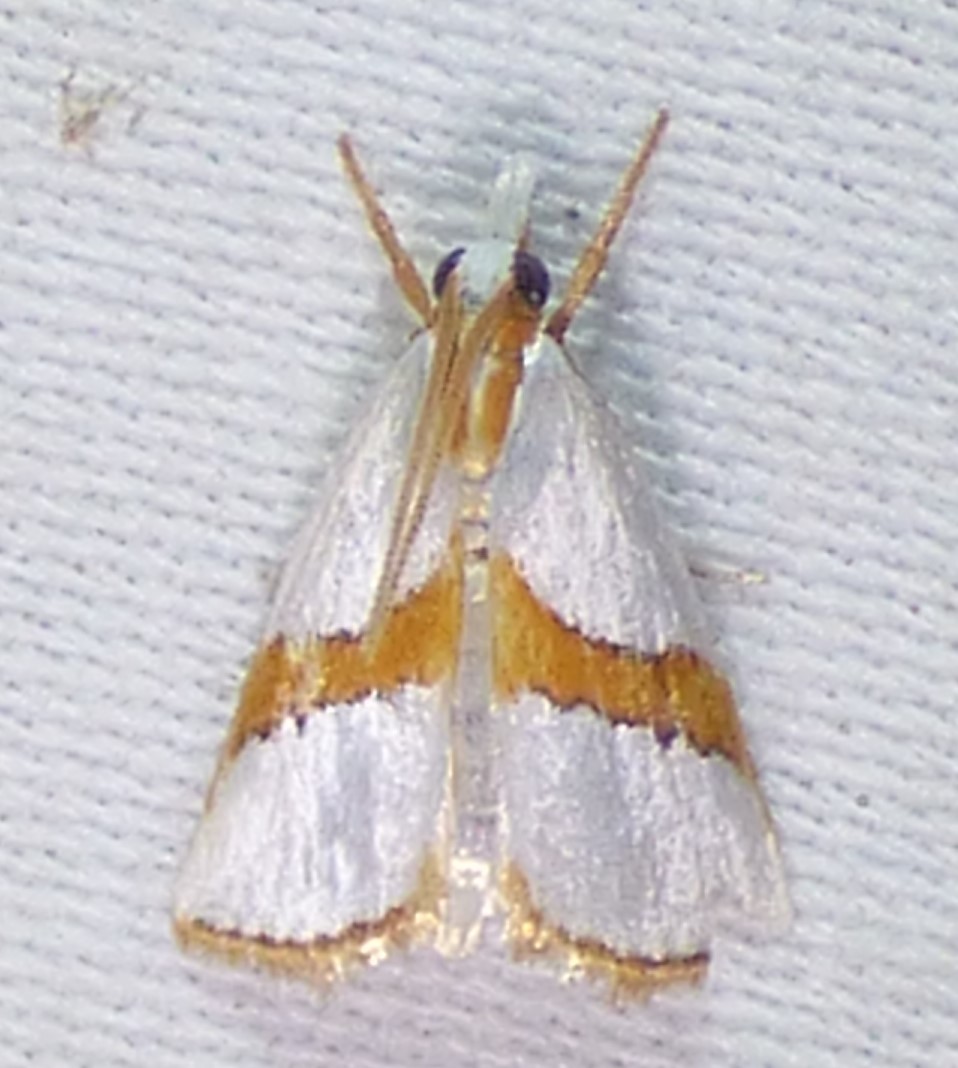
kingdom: Animalia
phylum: Arthropoda
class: Insecta
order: Lepidoptera
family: Crambidae
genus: Vaxi
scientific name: Vaxi critica
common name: Straight-lined vaxi moth
